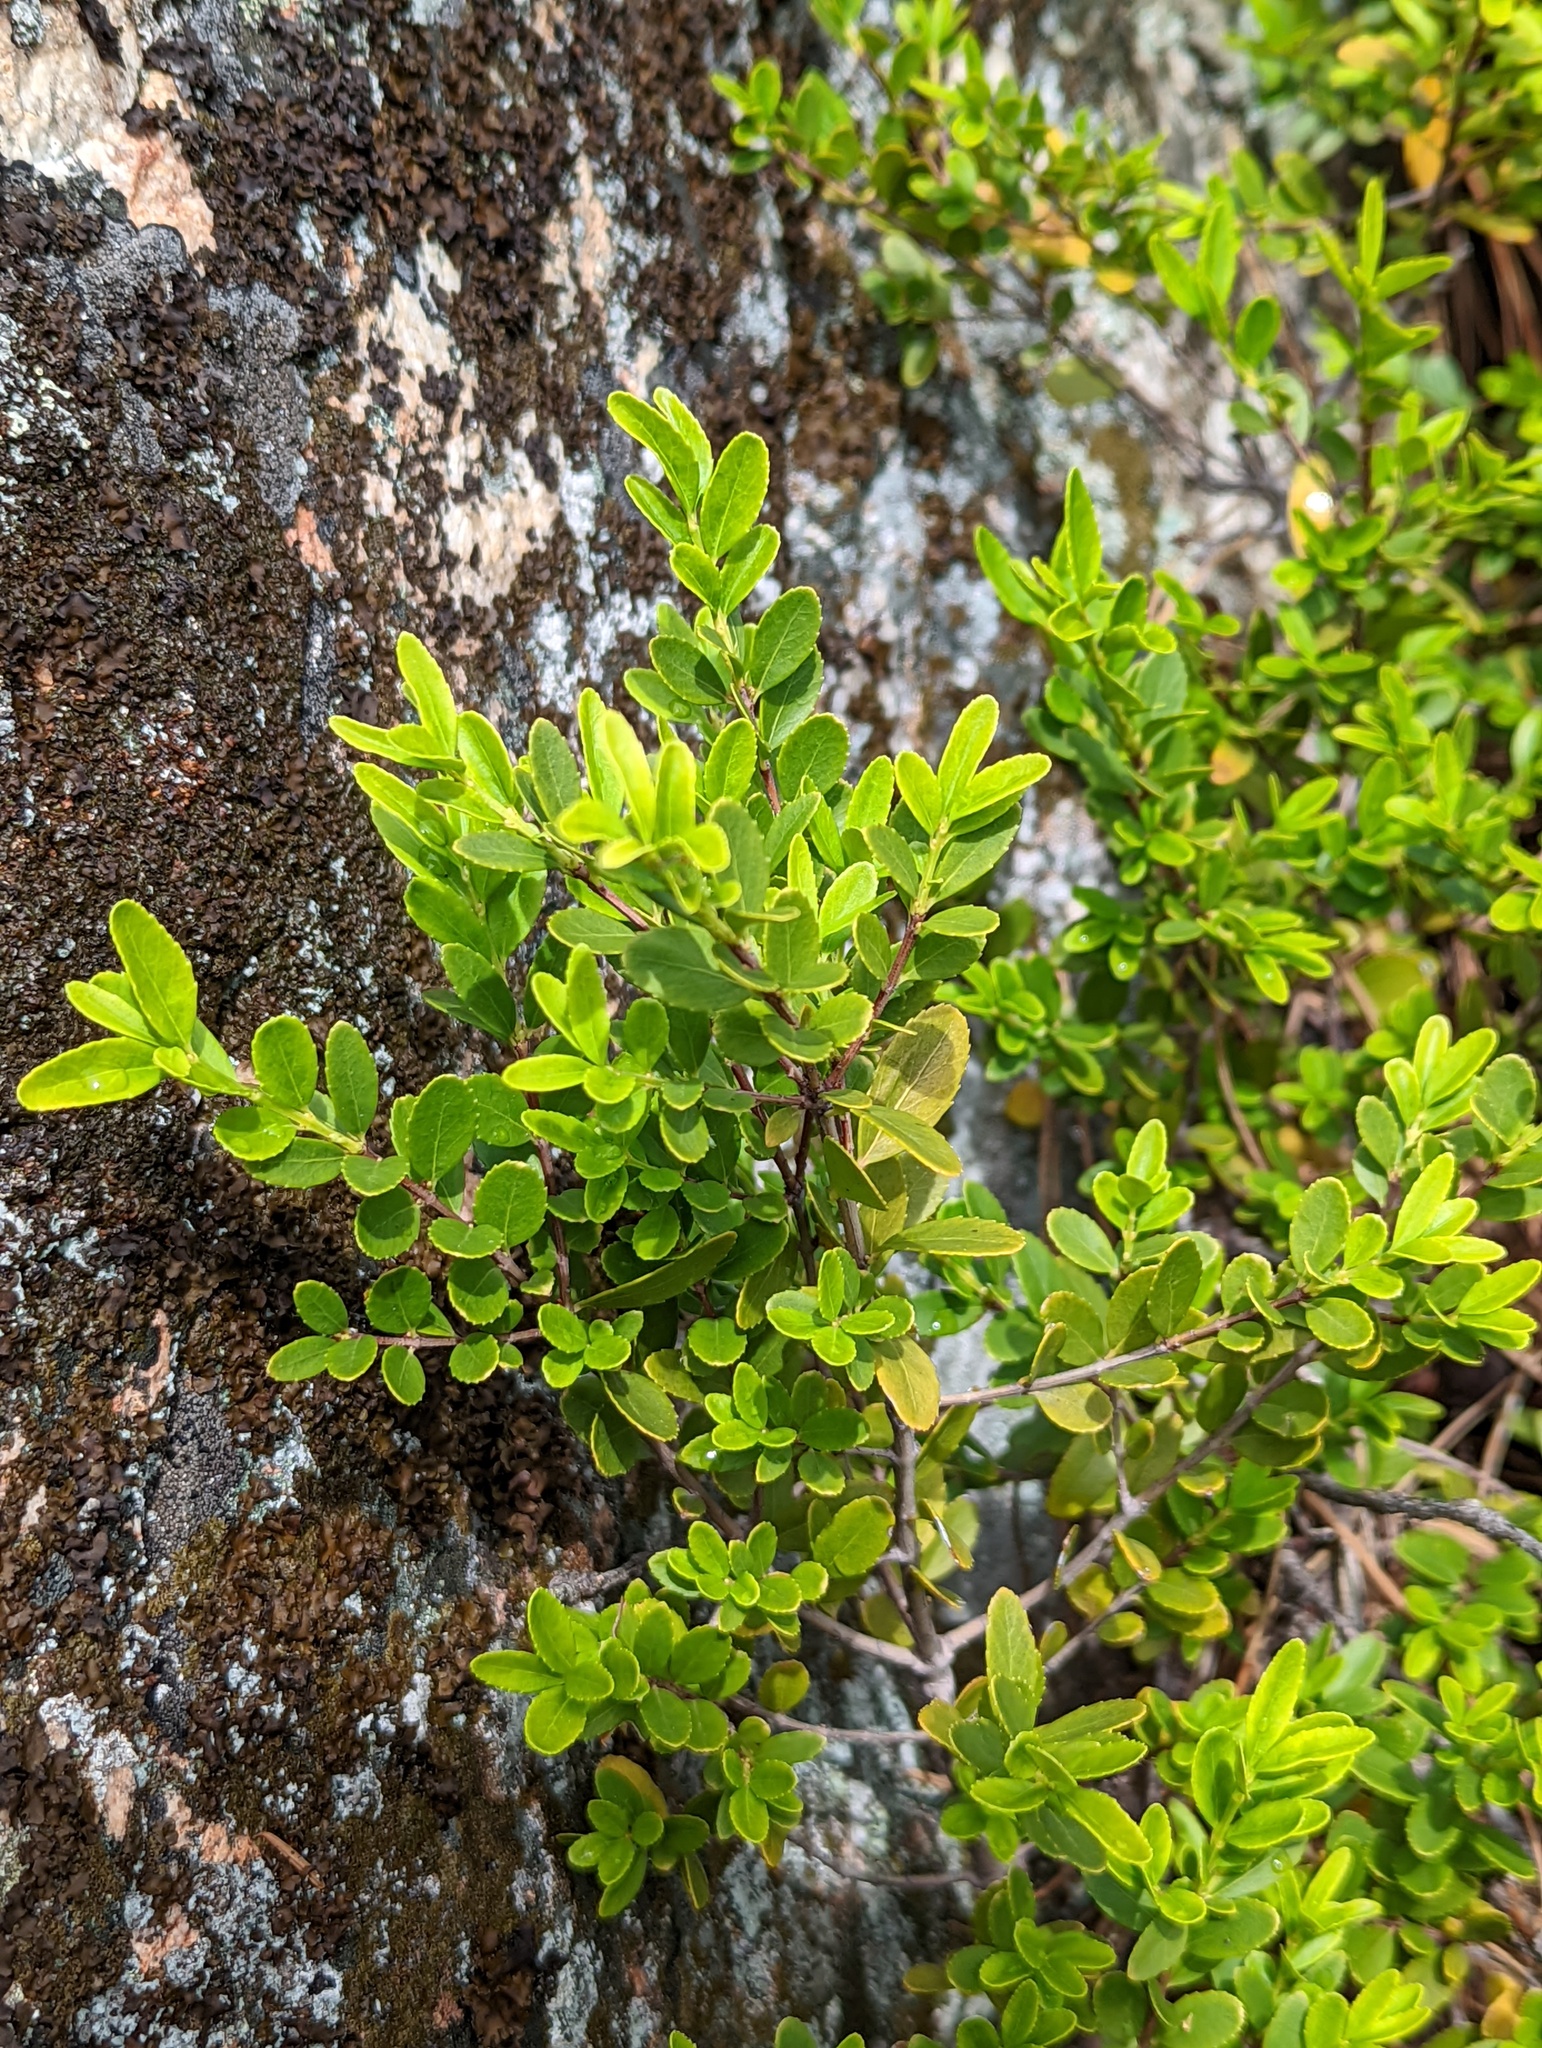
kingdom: Plantae
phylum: Tracheophyta
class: Magnoliopsida
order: Celastrales
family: Celastraceae
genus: Paxistima
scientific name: Paxistima myrsinites
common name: Mountain-lover
